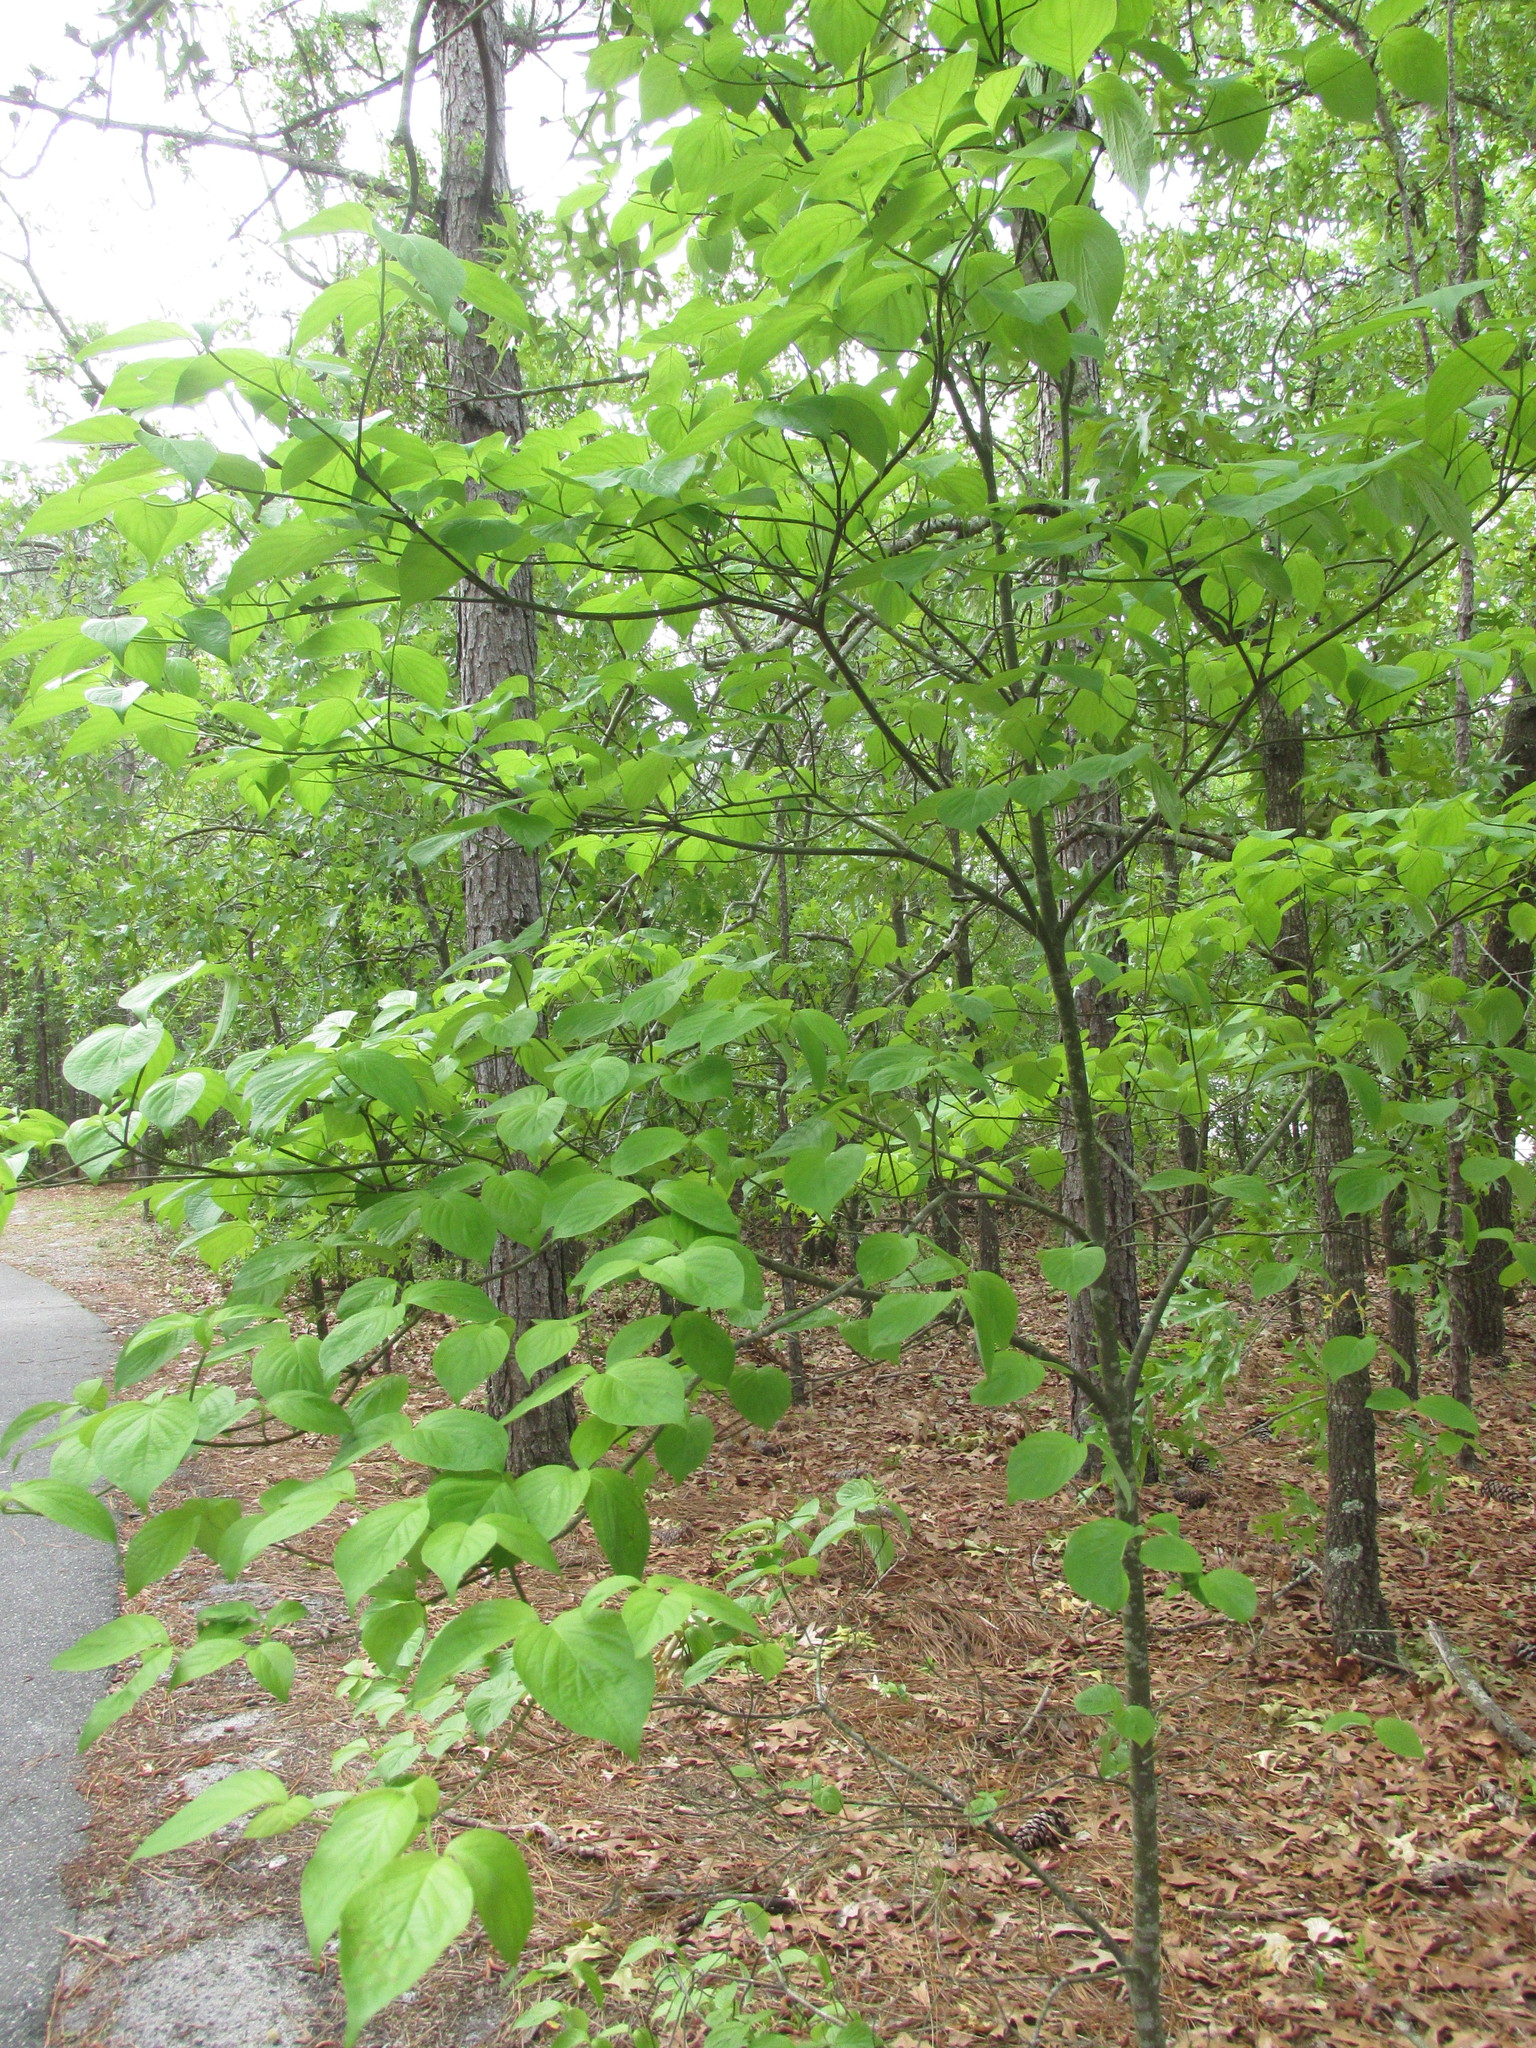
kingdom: Plantae
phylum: Tracheophyta
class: Magnoliopsida
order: Cornales
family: Cornaceae
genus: Cornus
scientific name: Cornus florida
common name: Flowering dogwood
